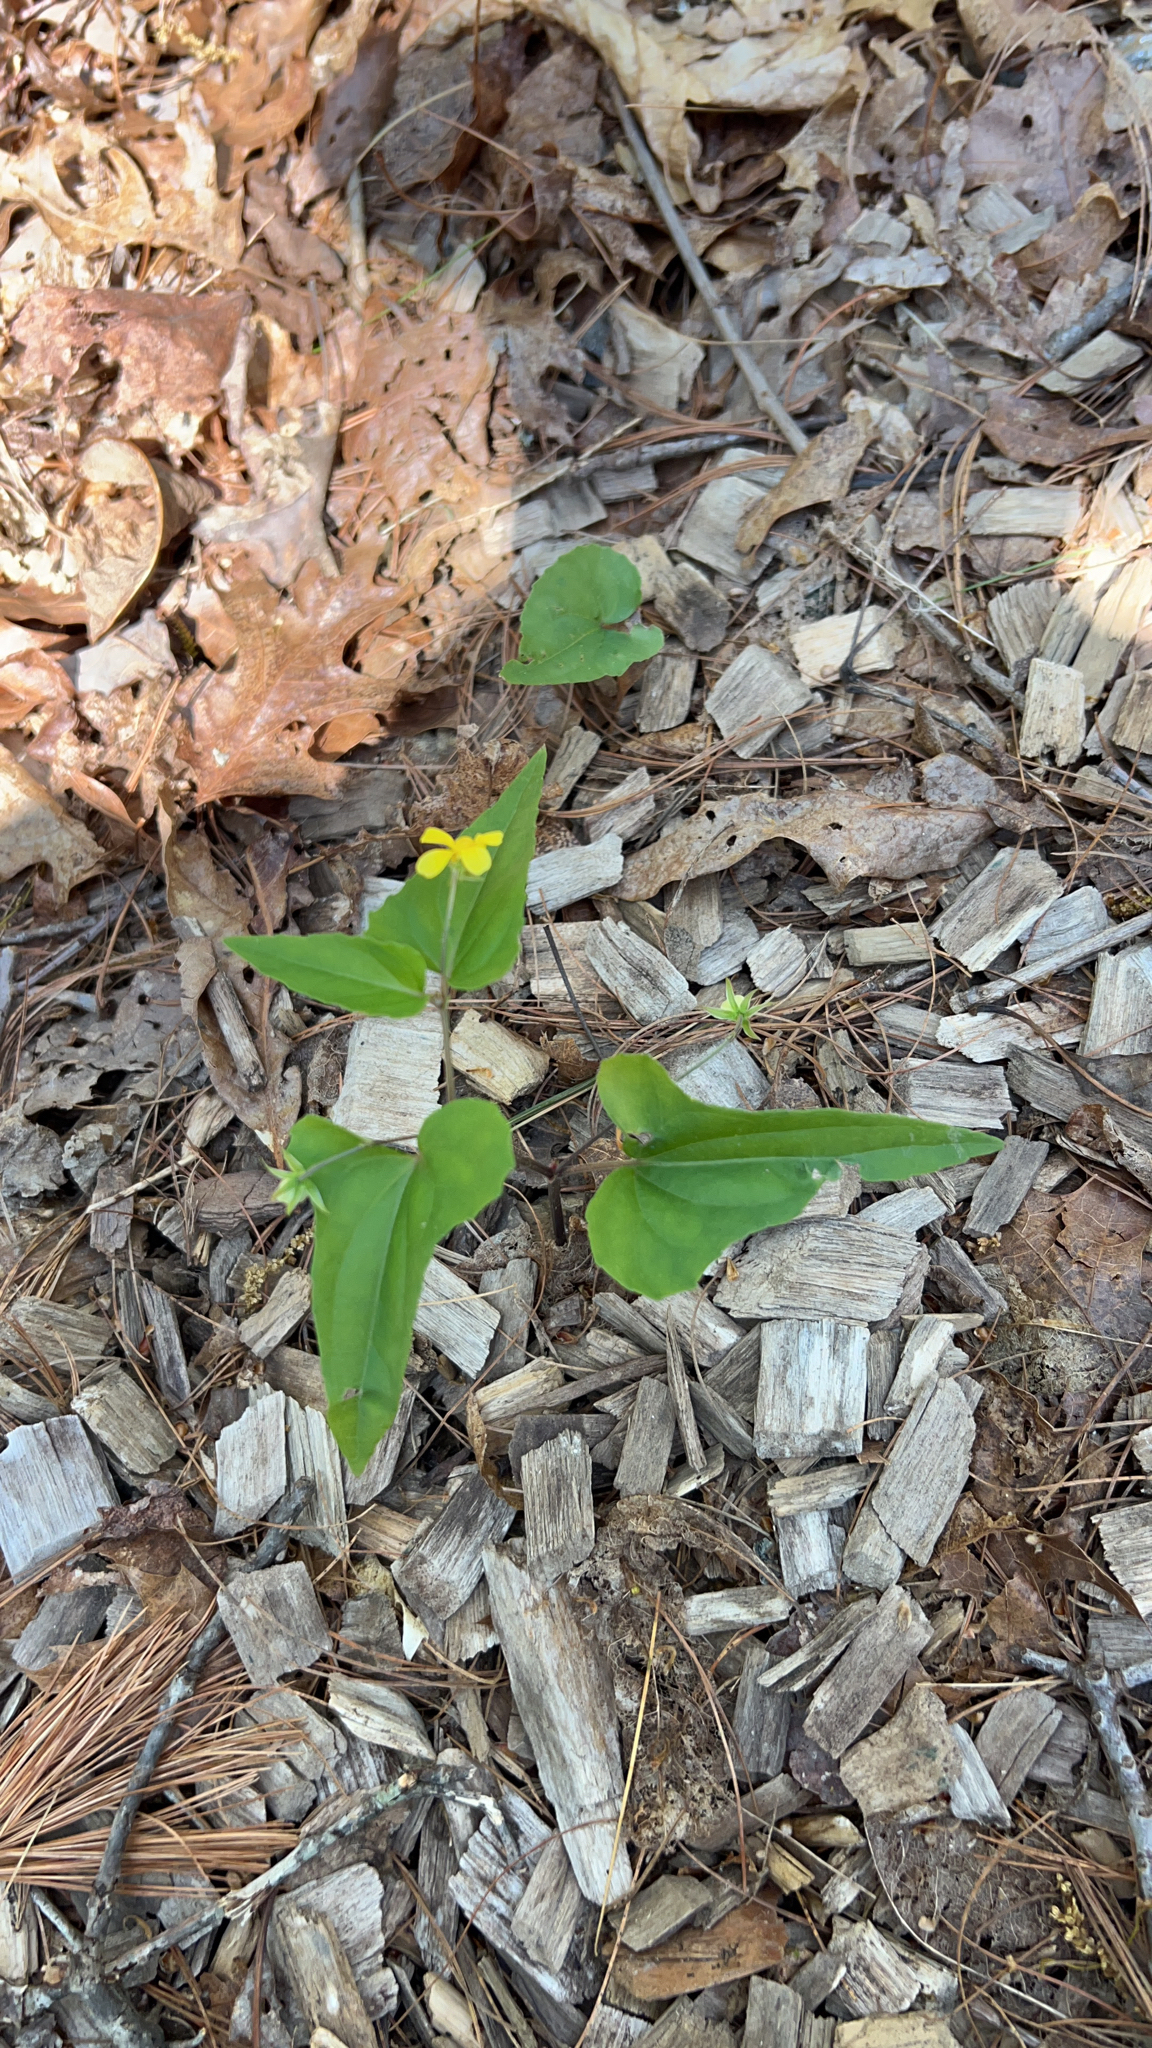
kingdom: Plantae
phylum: Tracheophyta
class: Magnoliopsida
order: Malpighiales
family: Violaceae
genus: Viola
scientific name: Viola hastata
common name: Spear-leaf violet
